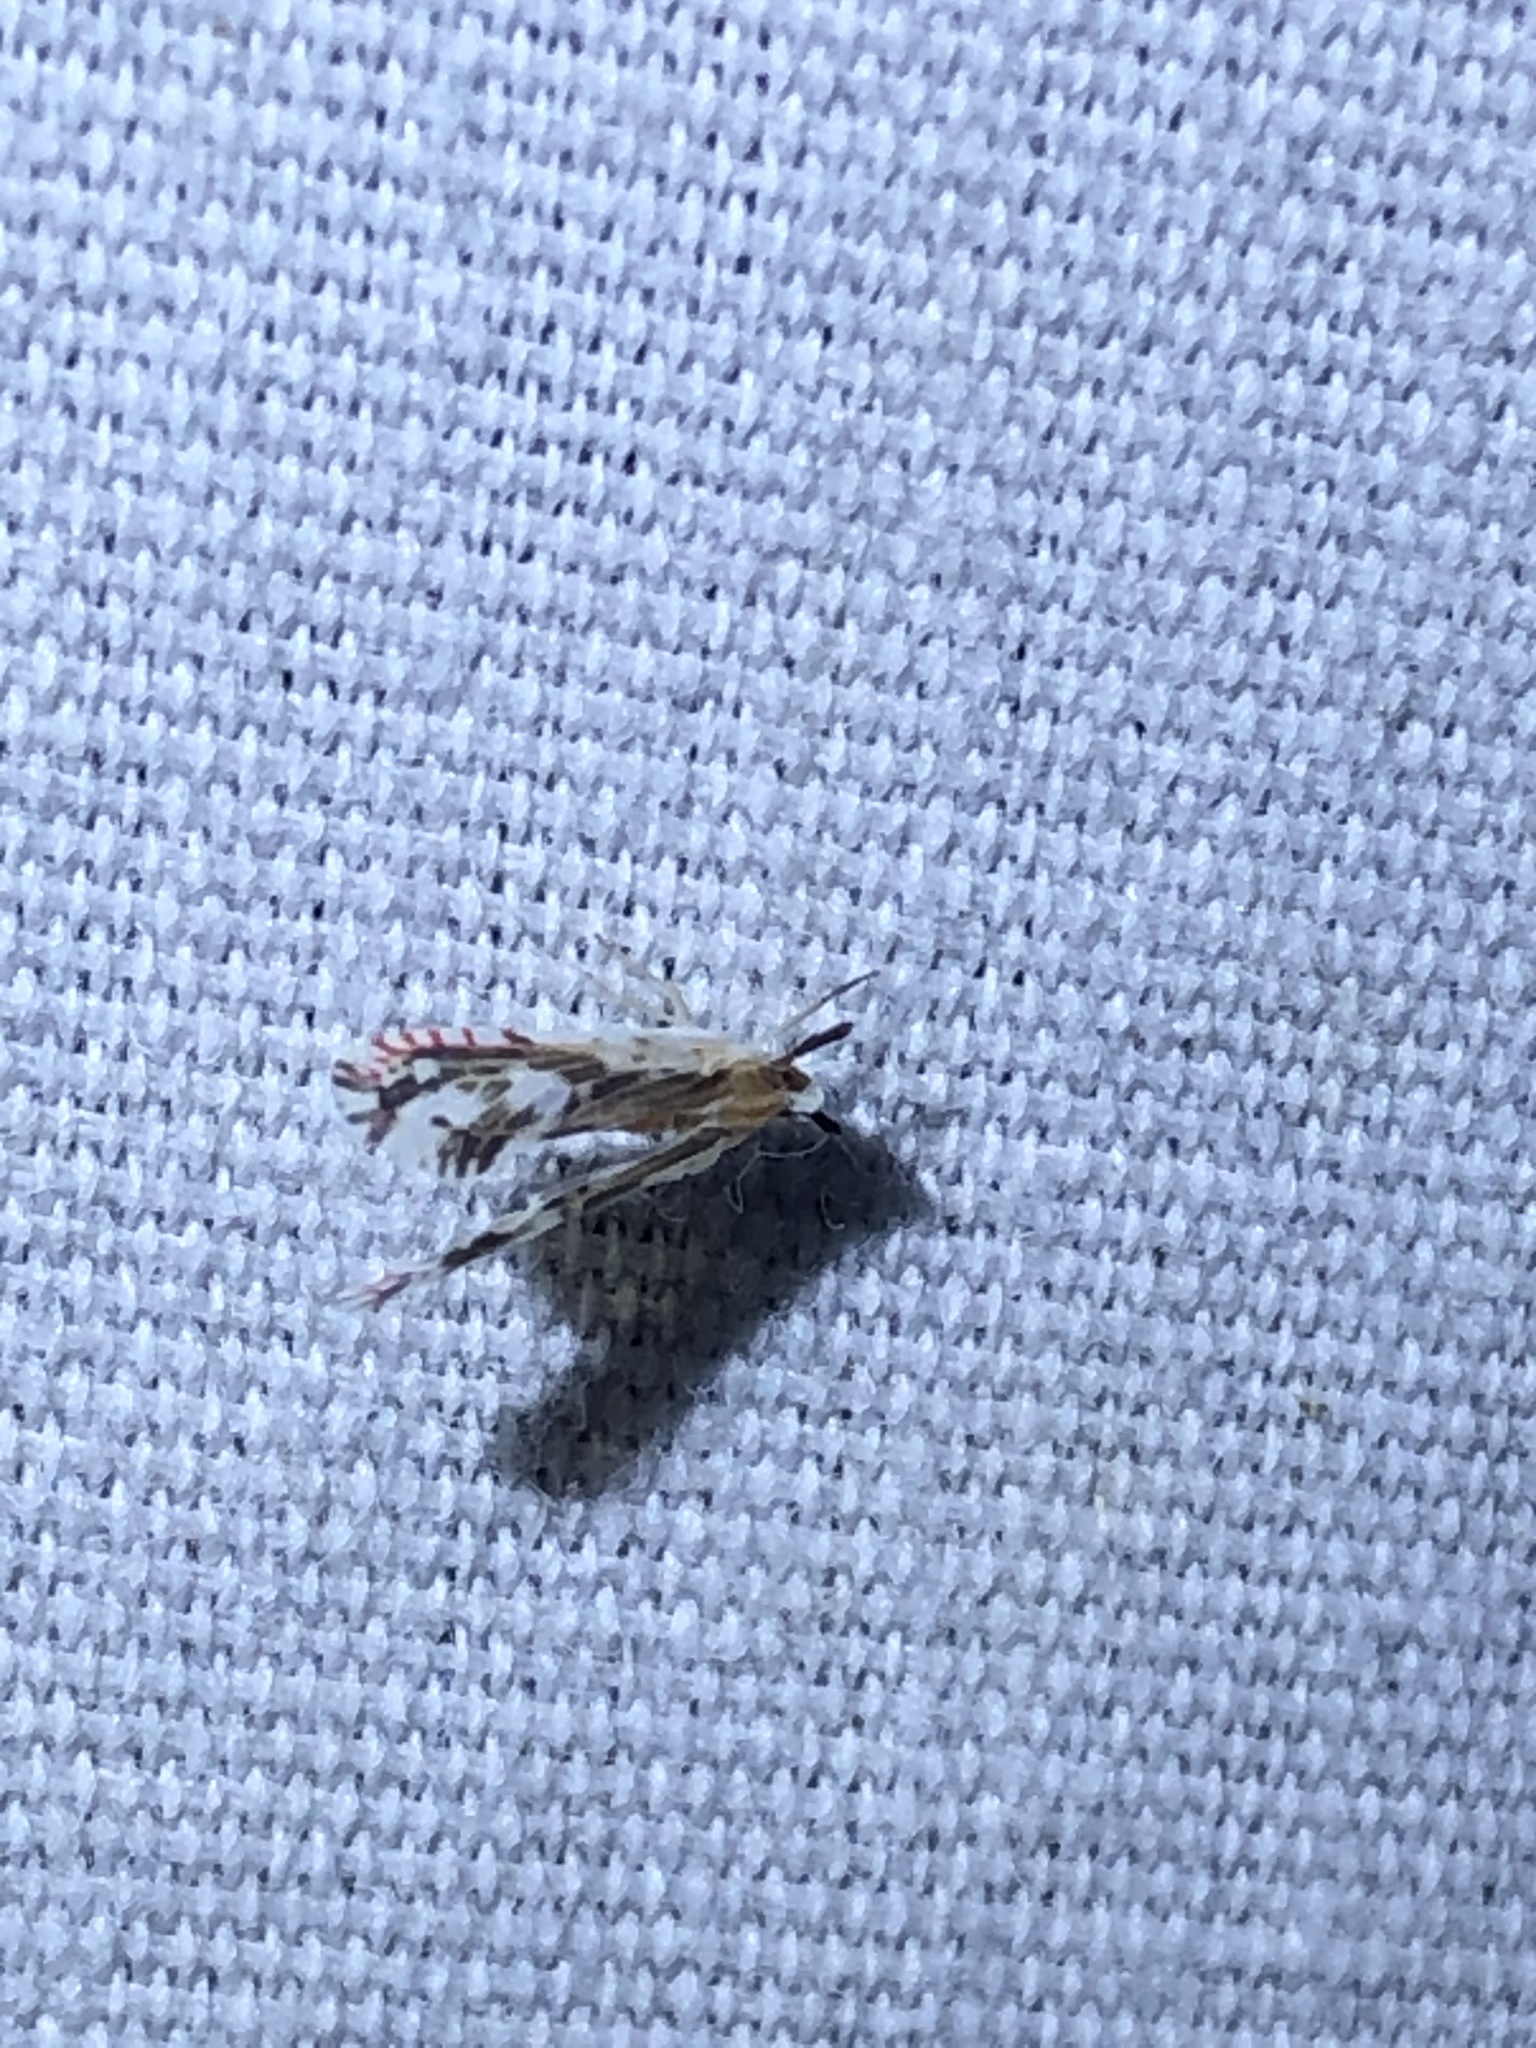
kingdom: Animalia
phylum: Arthropoda
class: Insecta
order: Hemiptera
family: Derbidae
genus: Anotia
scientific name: Anotia fitchi
